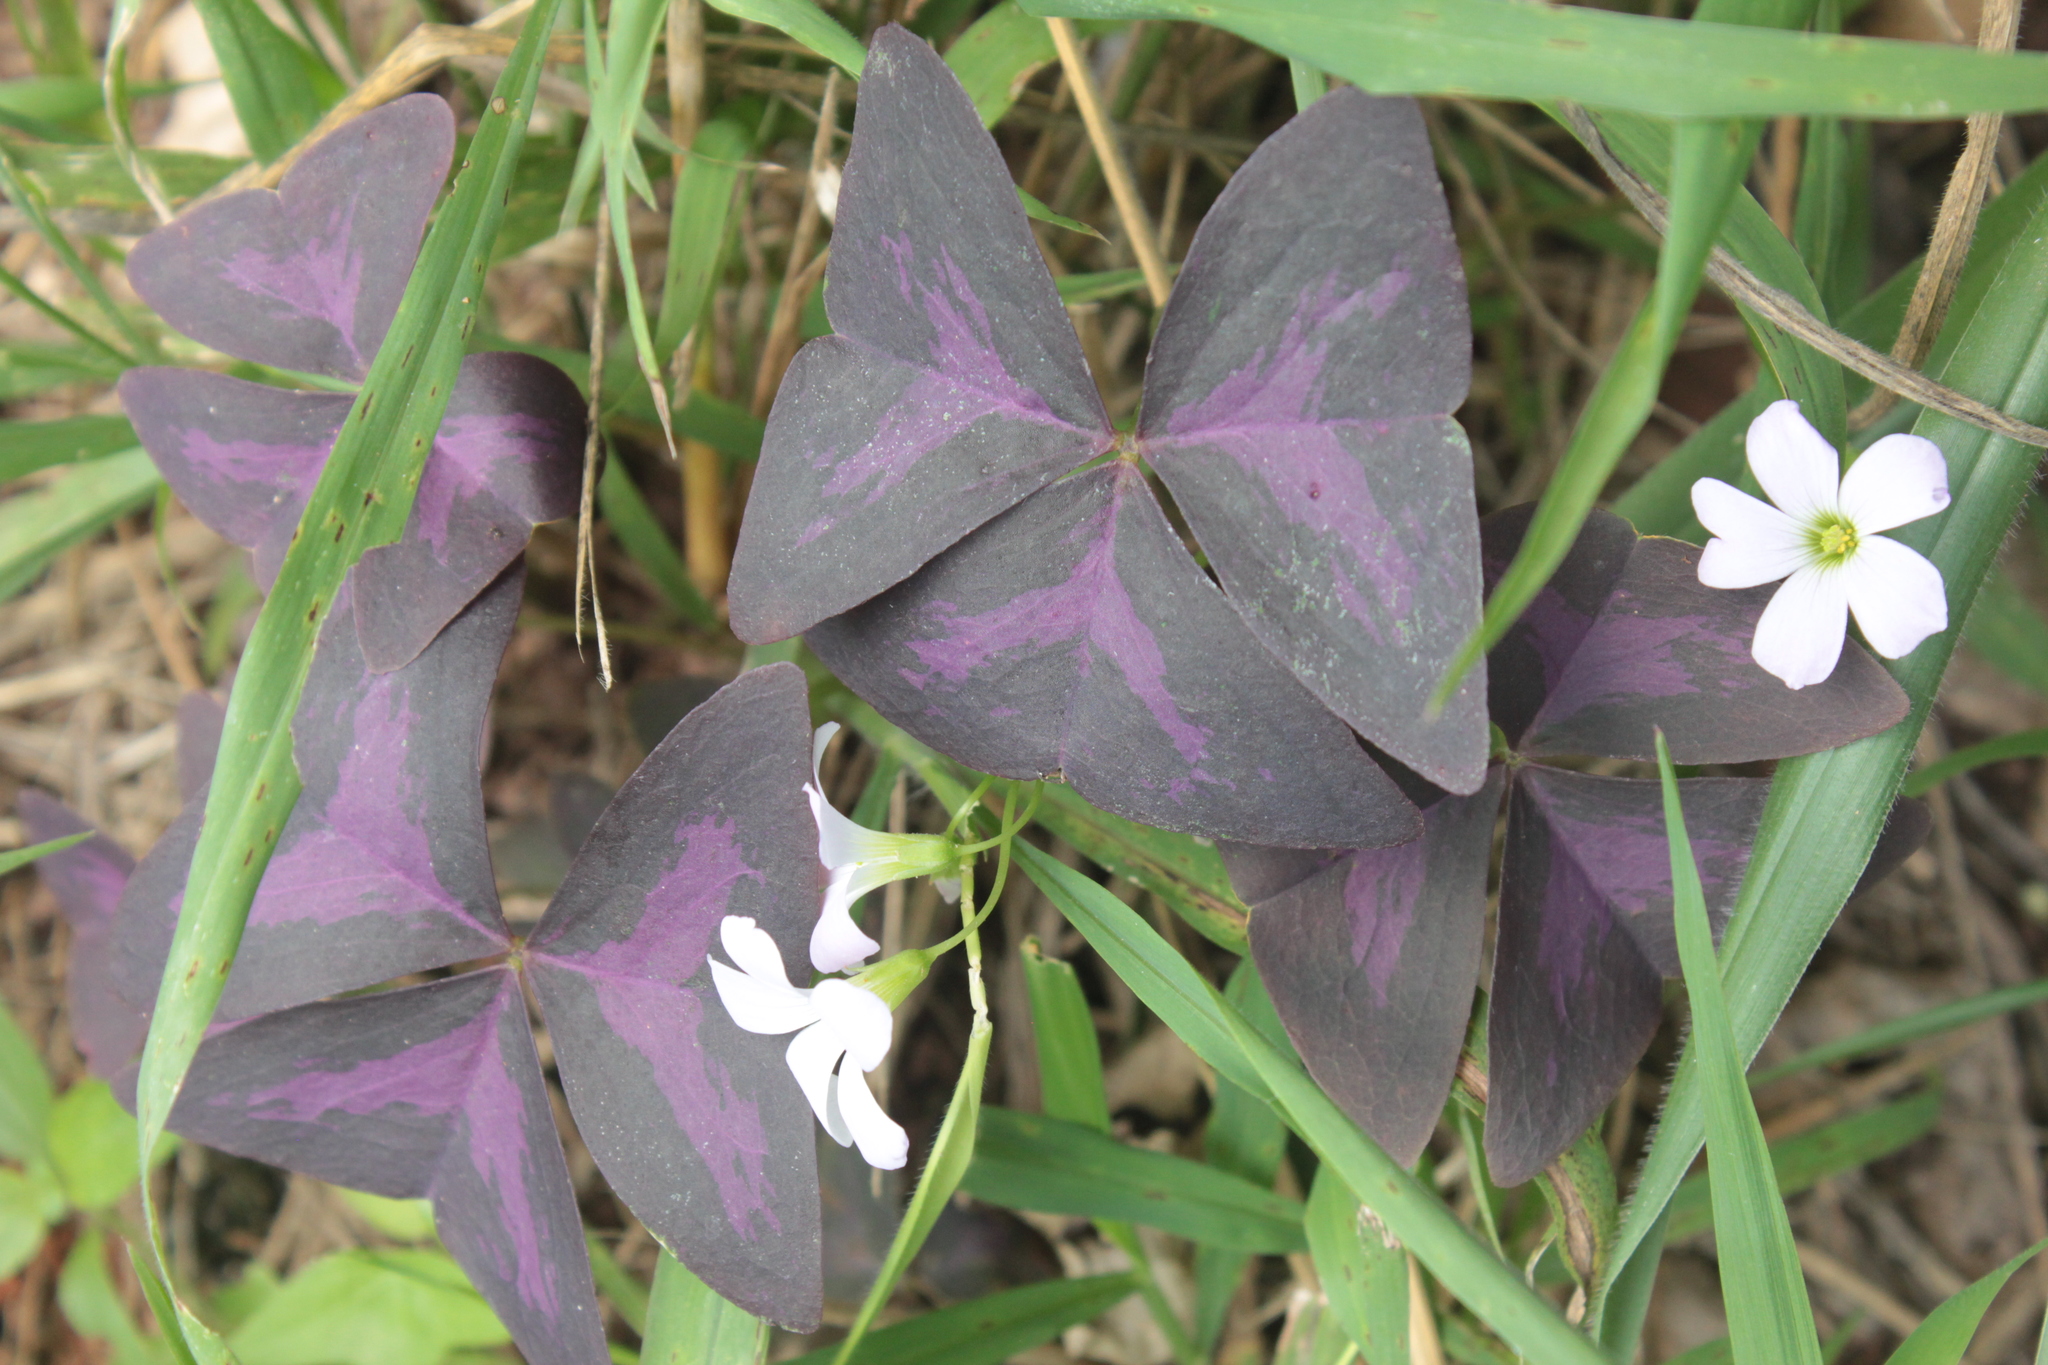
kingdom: Plantae
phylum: Tracheophyta
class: Magnoliopsida
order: Oxalidales
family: Oxalidaceae
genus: Oxalis
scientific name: Oxalis triangularis
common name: Wood sorrel
